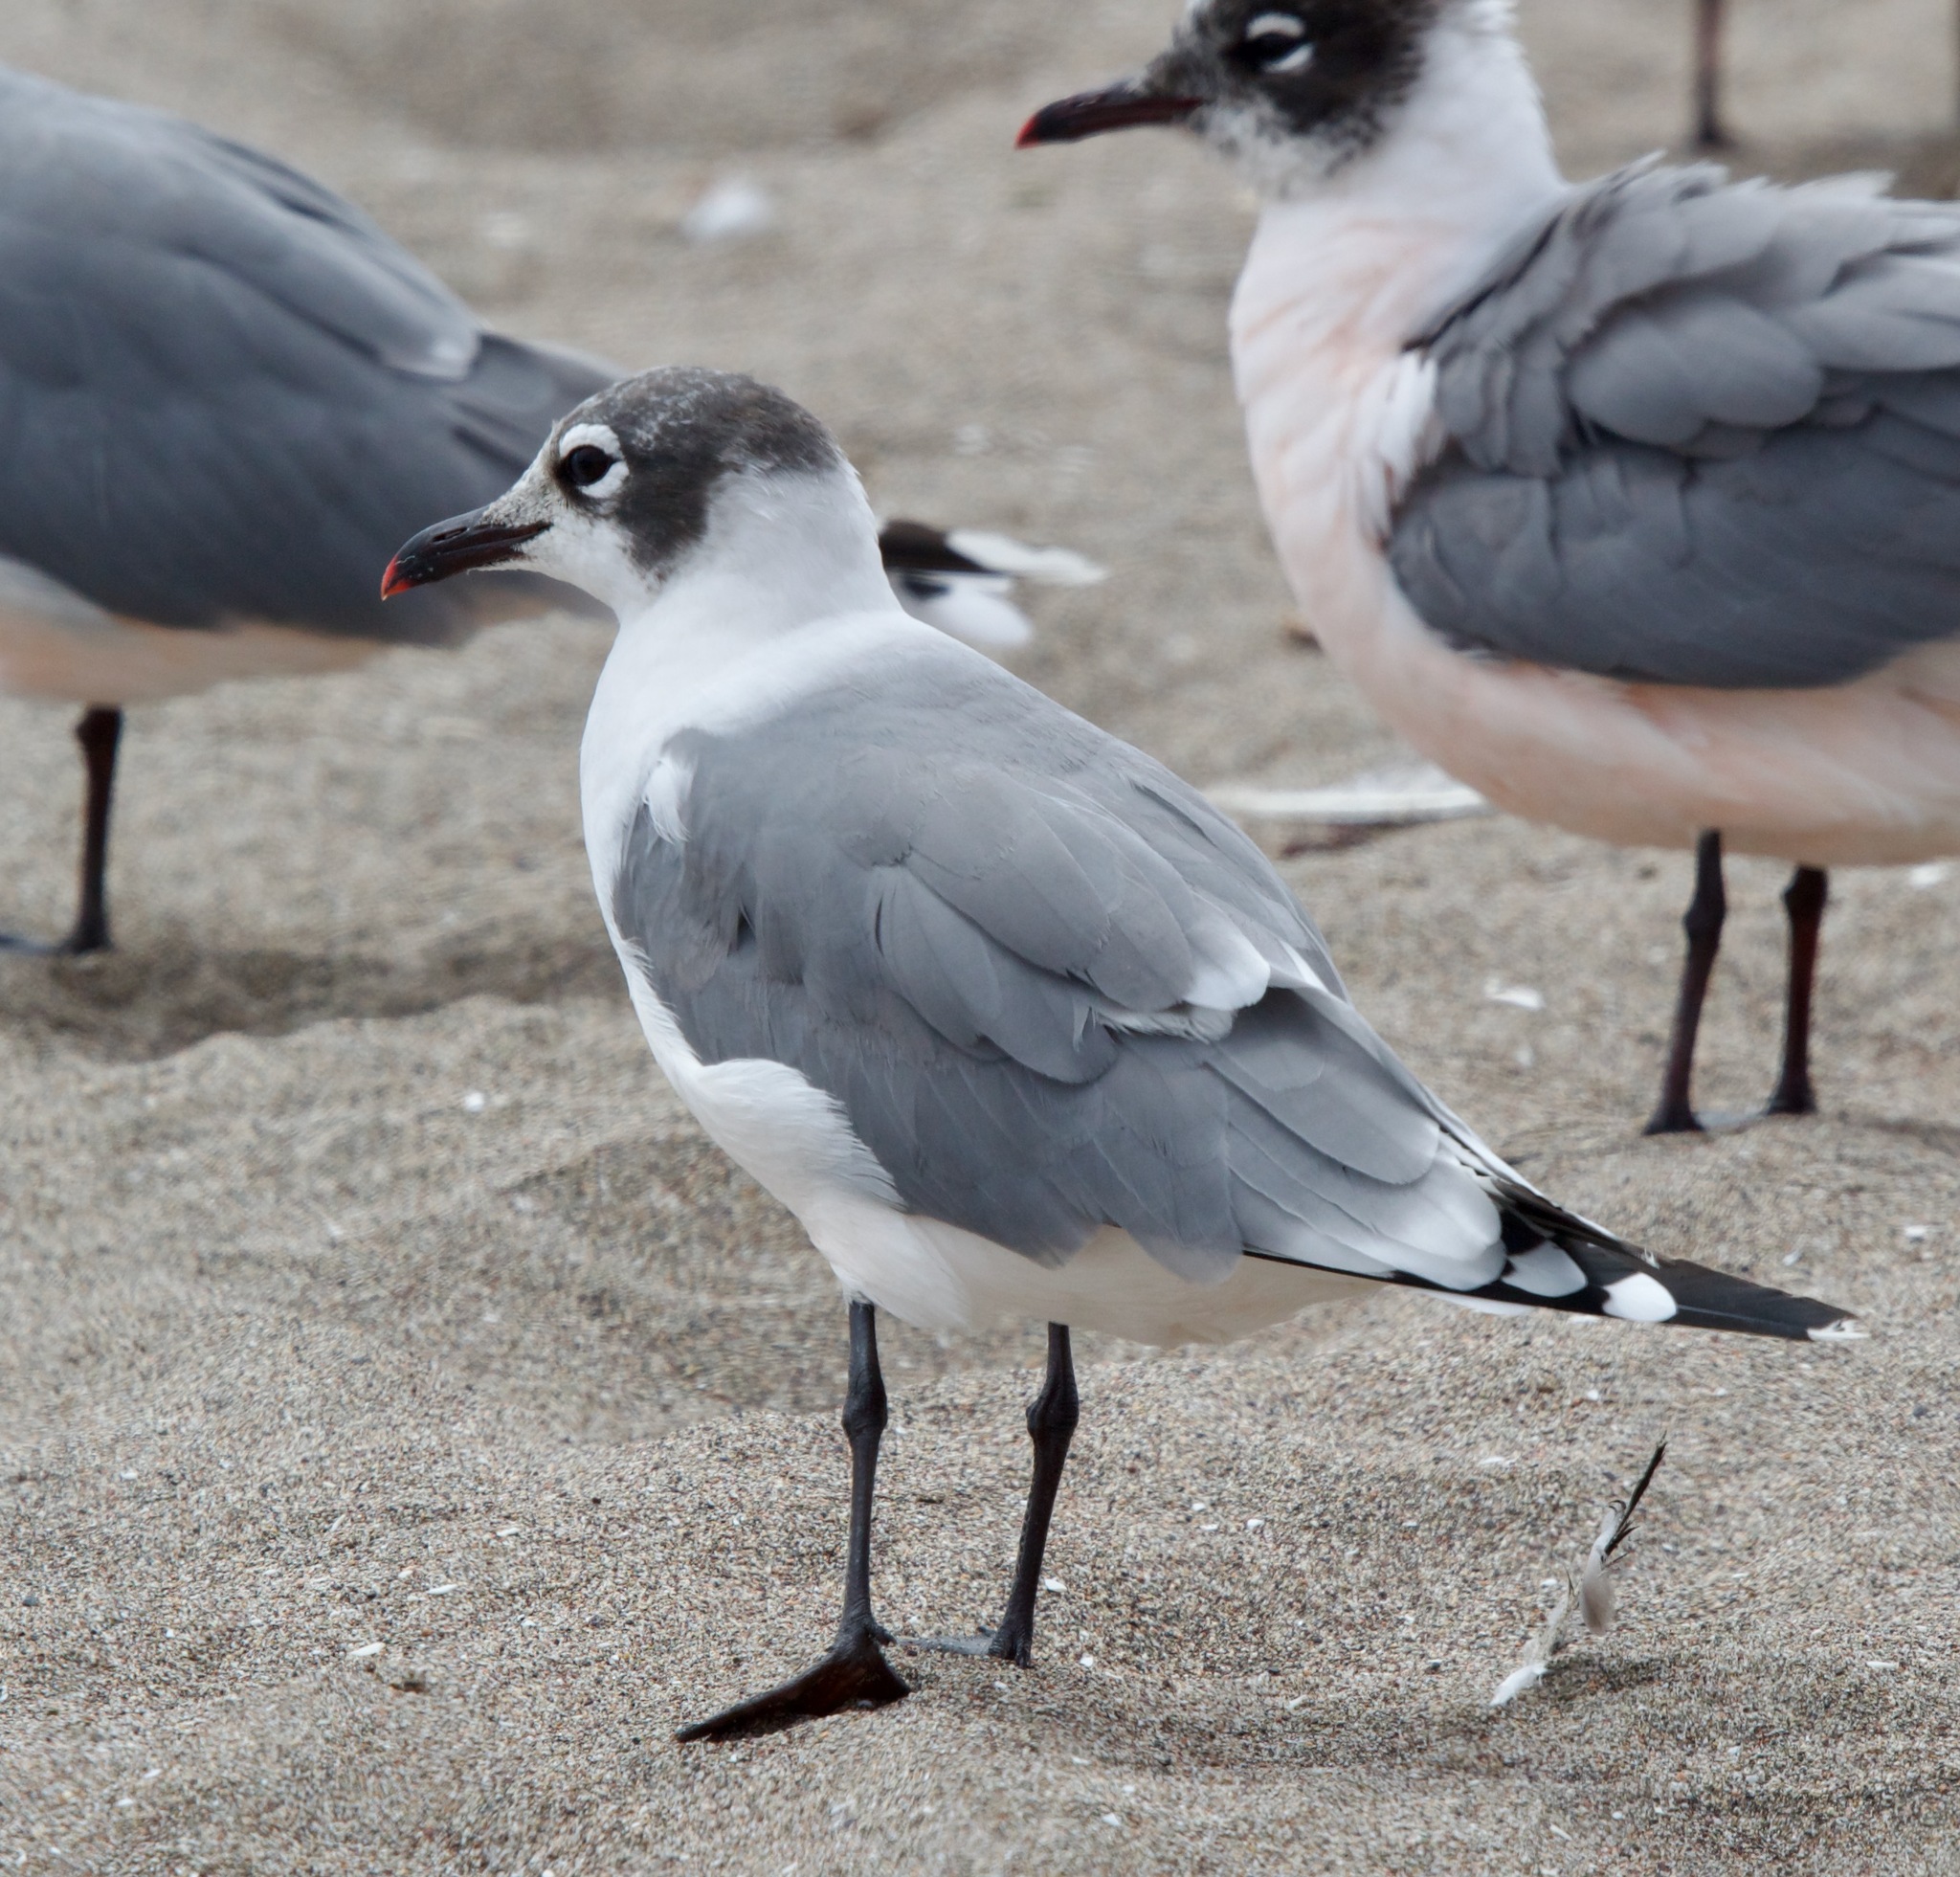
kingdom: Animalia
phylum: Chordata
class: Aves
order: Charadriiformes
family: Laridae
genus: Leucophaeus
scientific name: Leucophaeus pipixcan
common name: Franklin's gull
